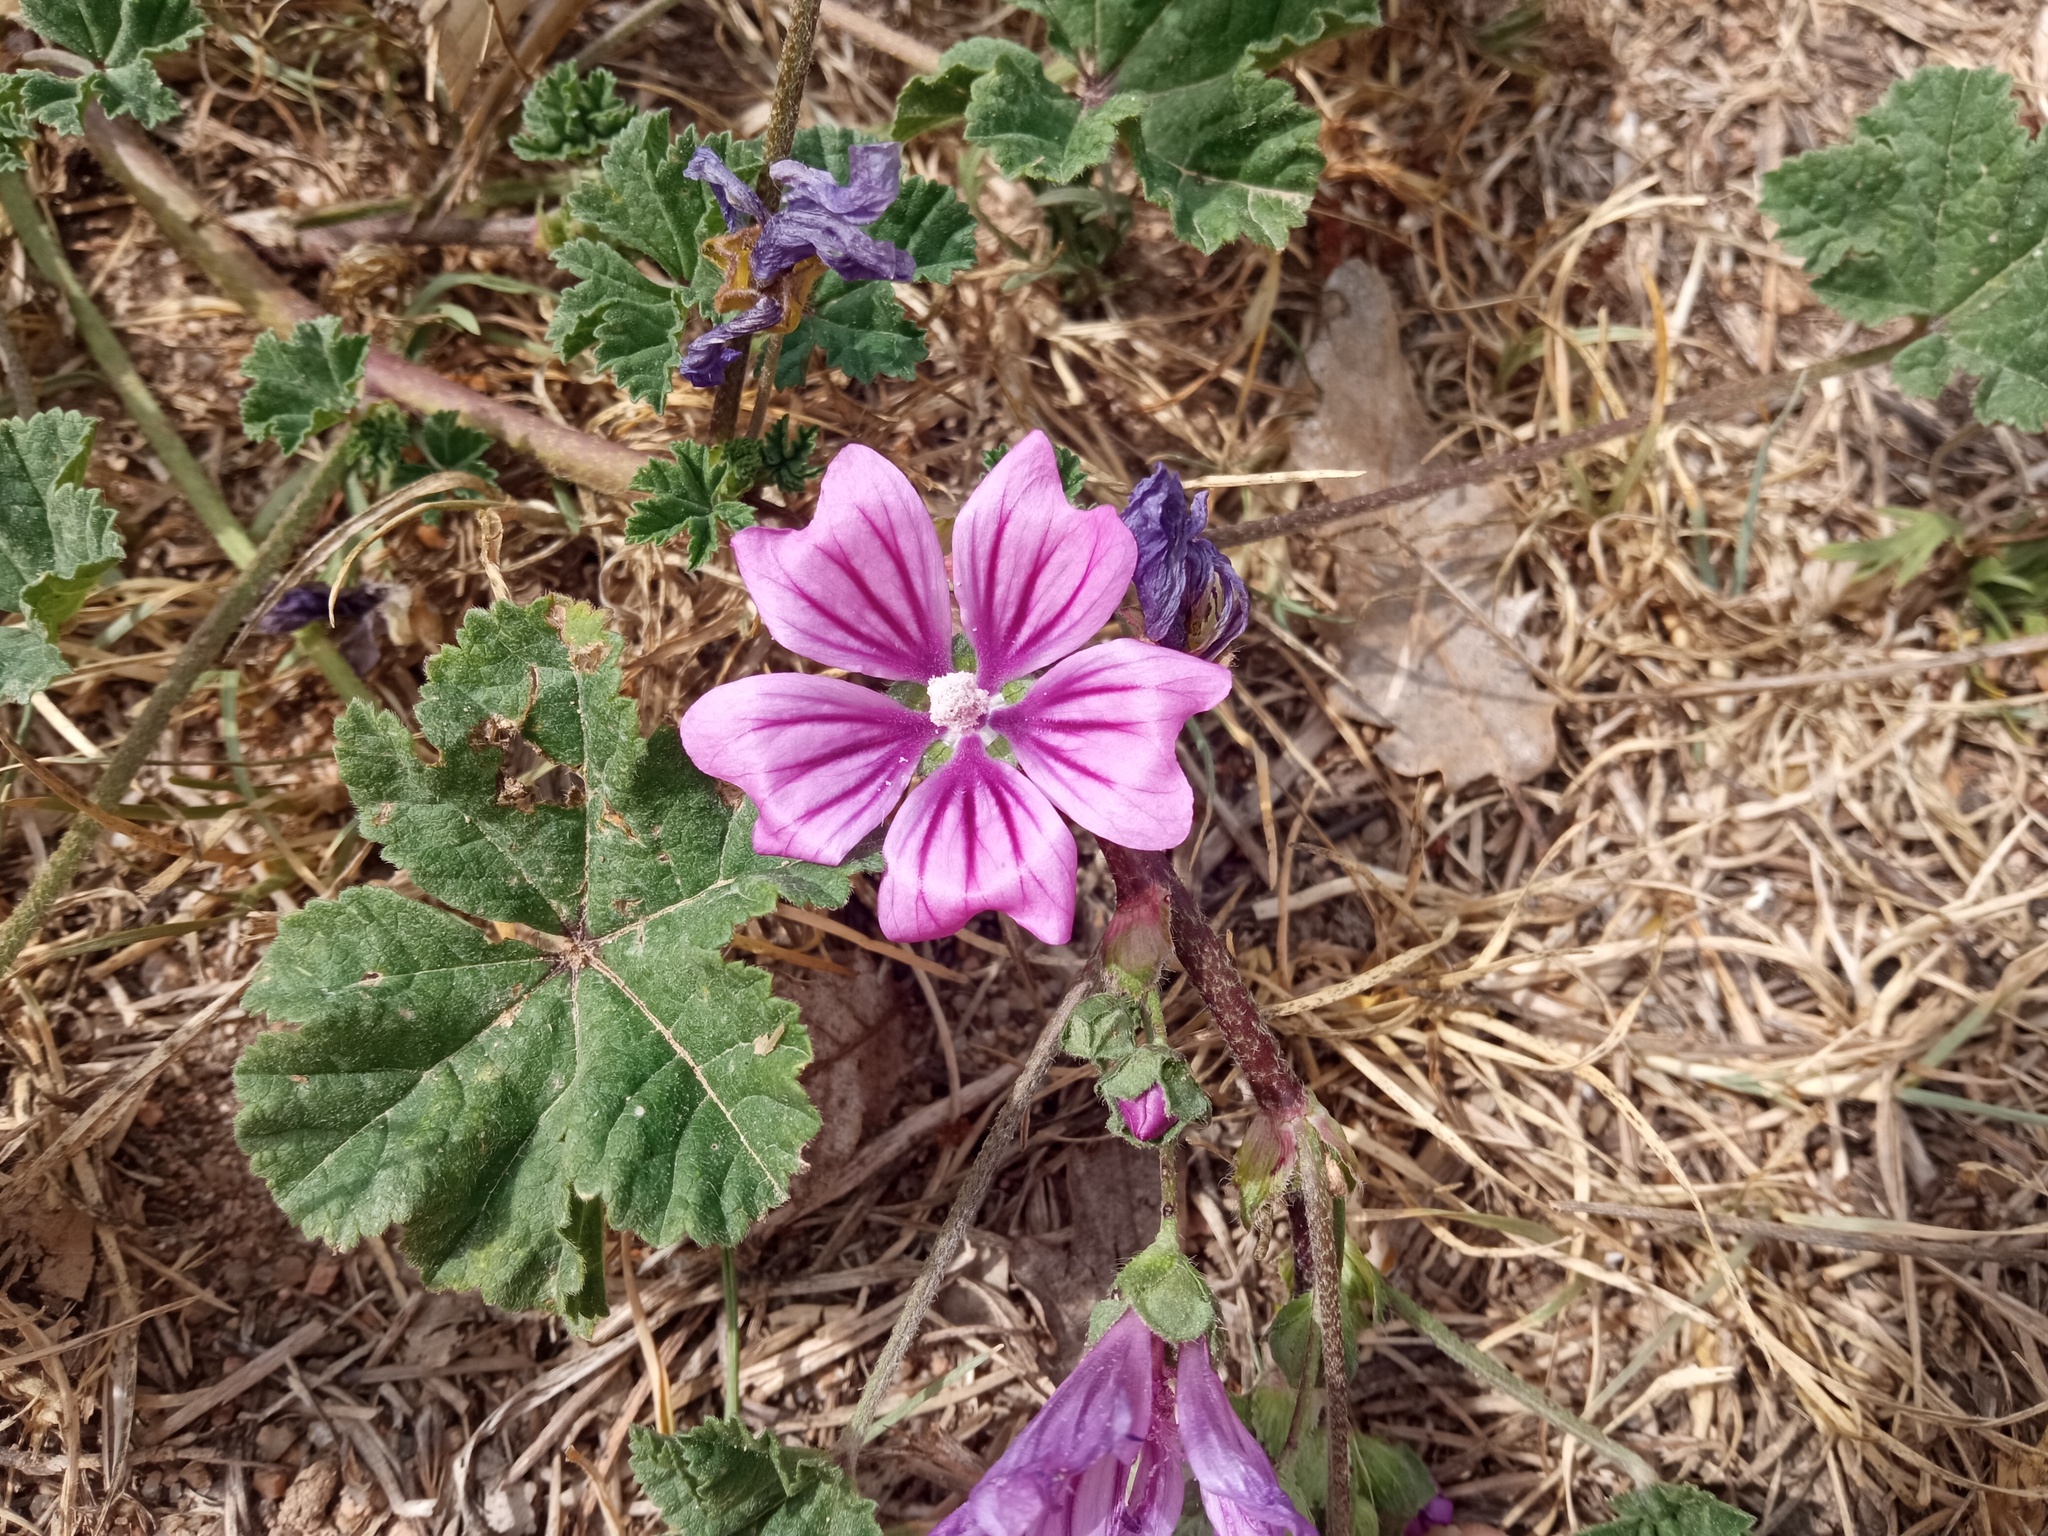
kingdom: Plantae
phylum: Tracheophyta
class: Magnoliopsida
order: Malvales
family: Malvaceae
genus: Malva
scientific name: Malva sylvestris
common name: Common mallow
